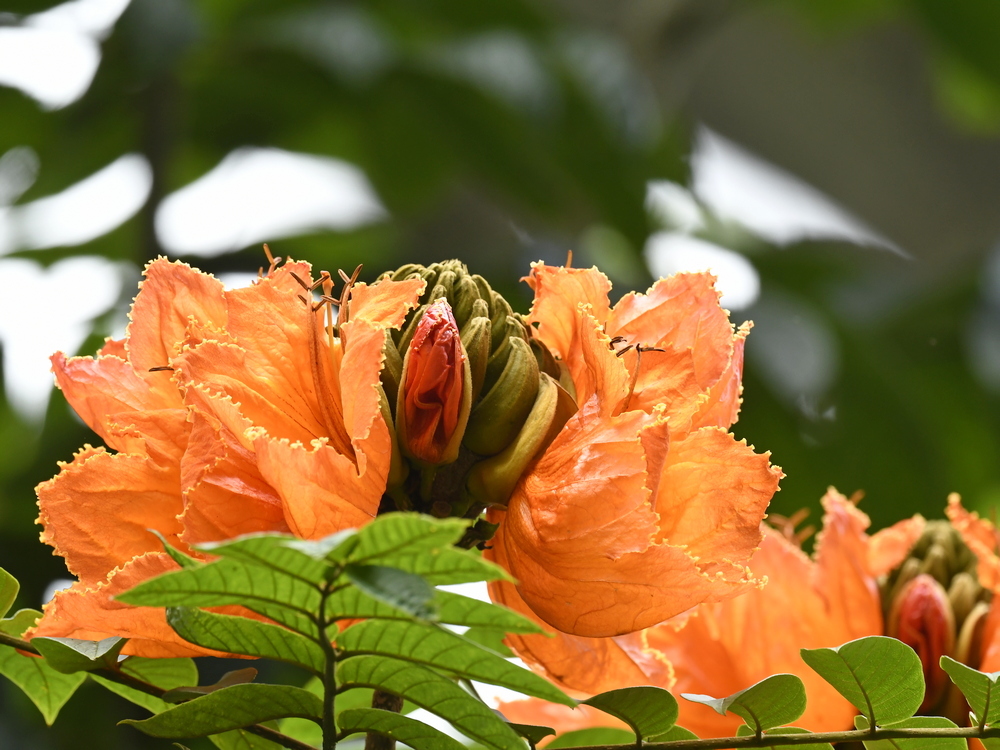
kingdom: Plantae
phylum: Tracheophyta
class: Magnoliopsida
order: Lamiales
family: Bignoniaceae
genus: Spathodea
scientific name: Spathodea campanulata
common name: African tuliptree
